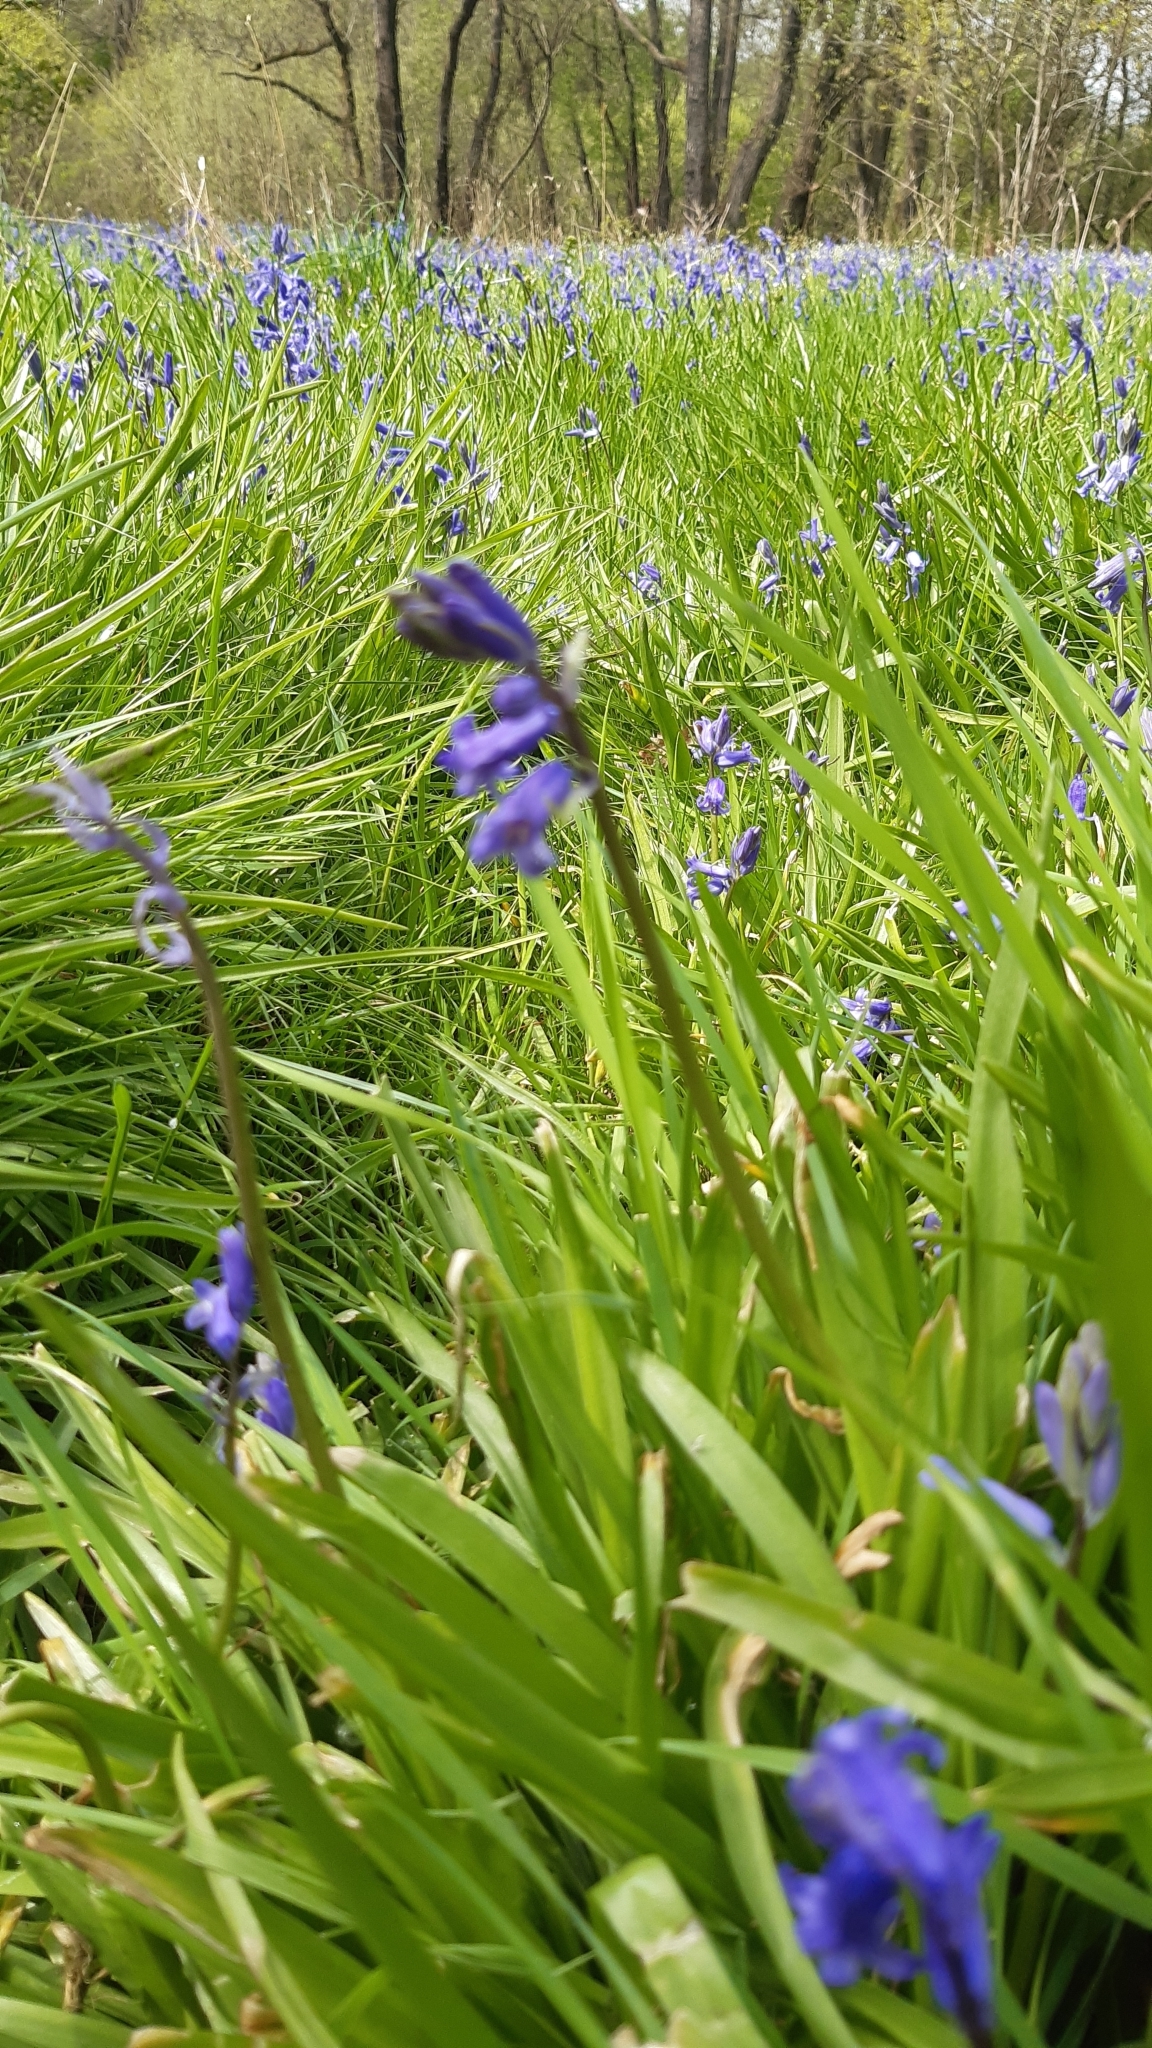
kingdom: Plantae
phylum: Tracheophyta
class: Liliopsida
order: Asparagales
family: Asparagaceae
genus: Hyacinthoides
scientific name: Hyacinthoides non-scripta
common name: Bluebell
